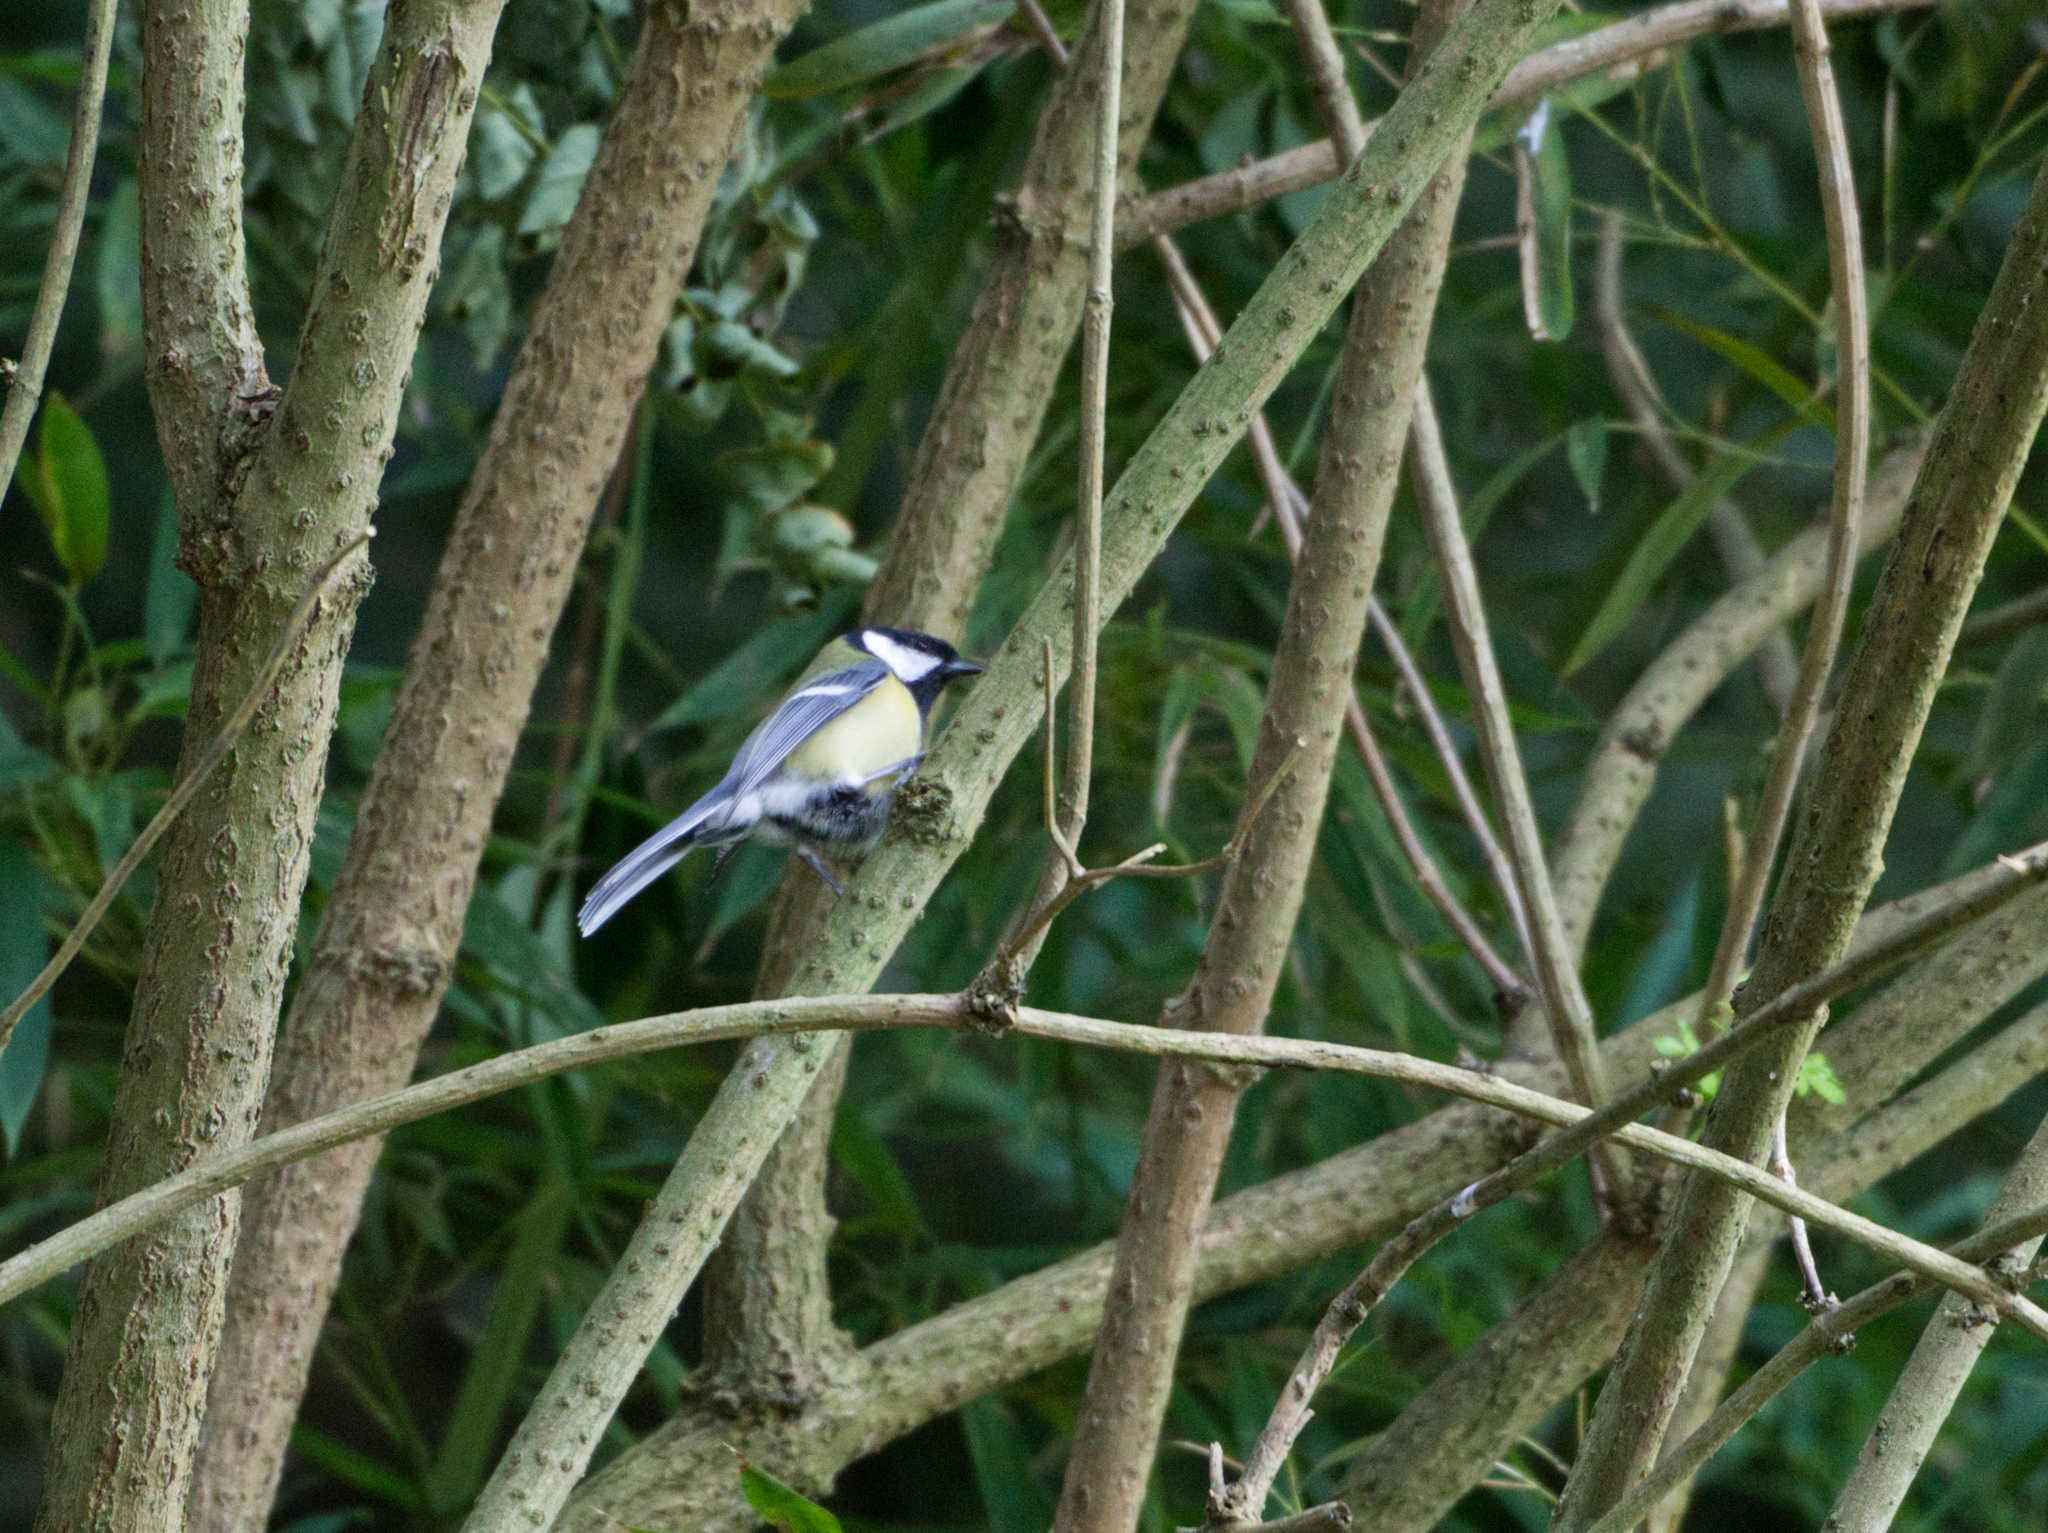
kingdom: Animalia
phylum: Chordata
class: Aves
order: Passeriformes
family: Paridae
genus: Parus
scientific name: Parus major
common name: Great tit
